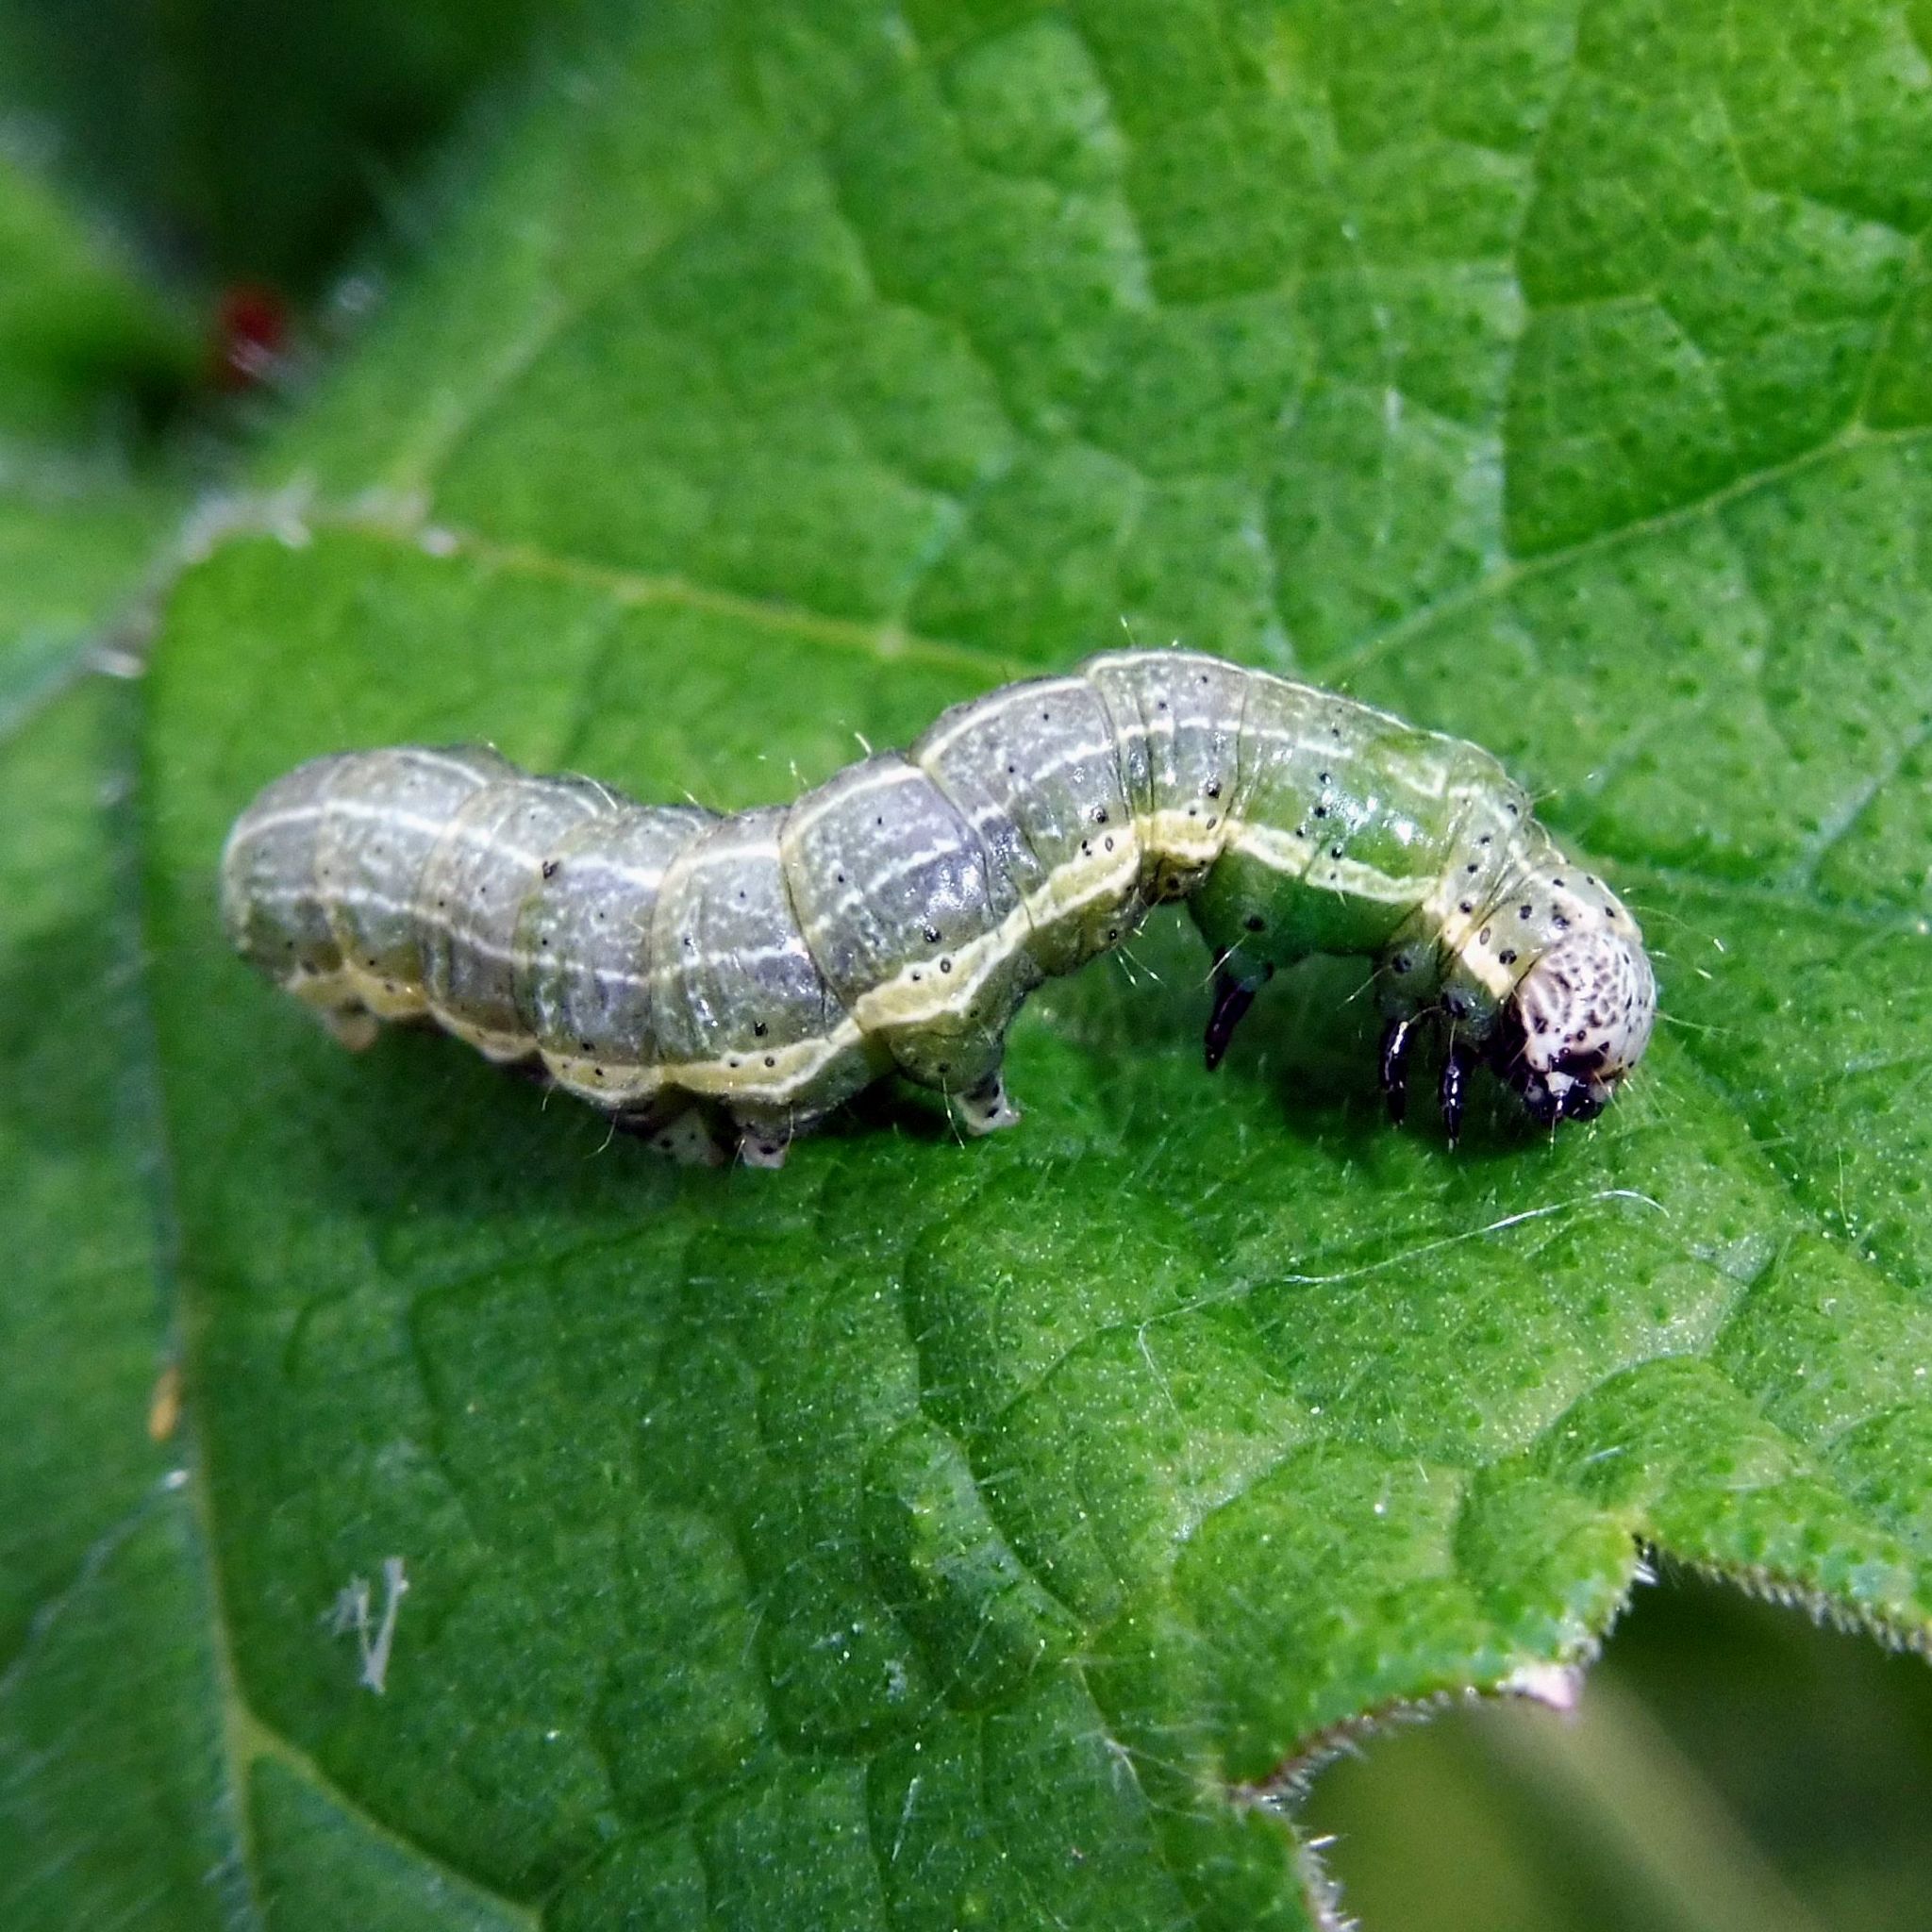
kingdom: Animalia
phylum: Arthropoda
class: Insecta
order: Lepidoptera
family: Noctuidae
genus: Orthosia
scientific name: Orthosia cruda
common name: Small quaker
